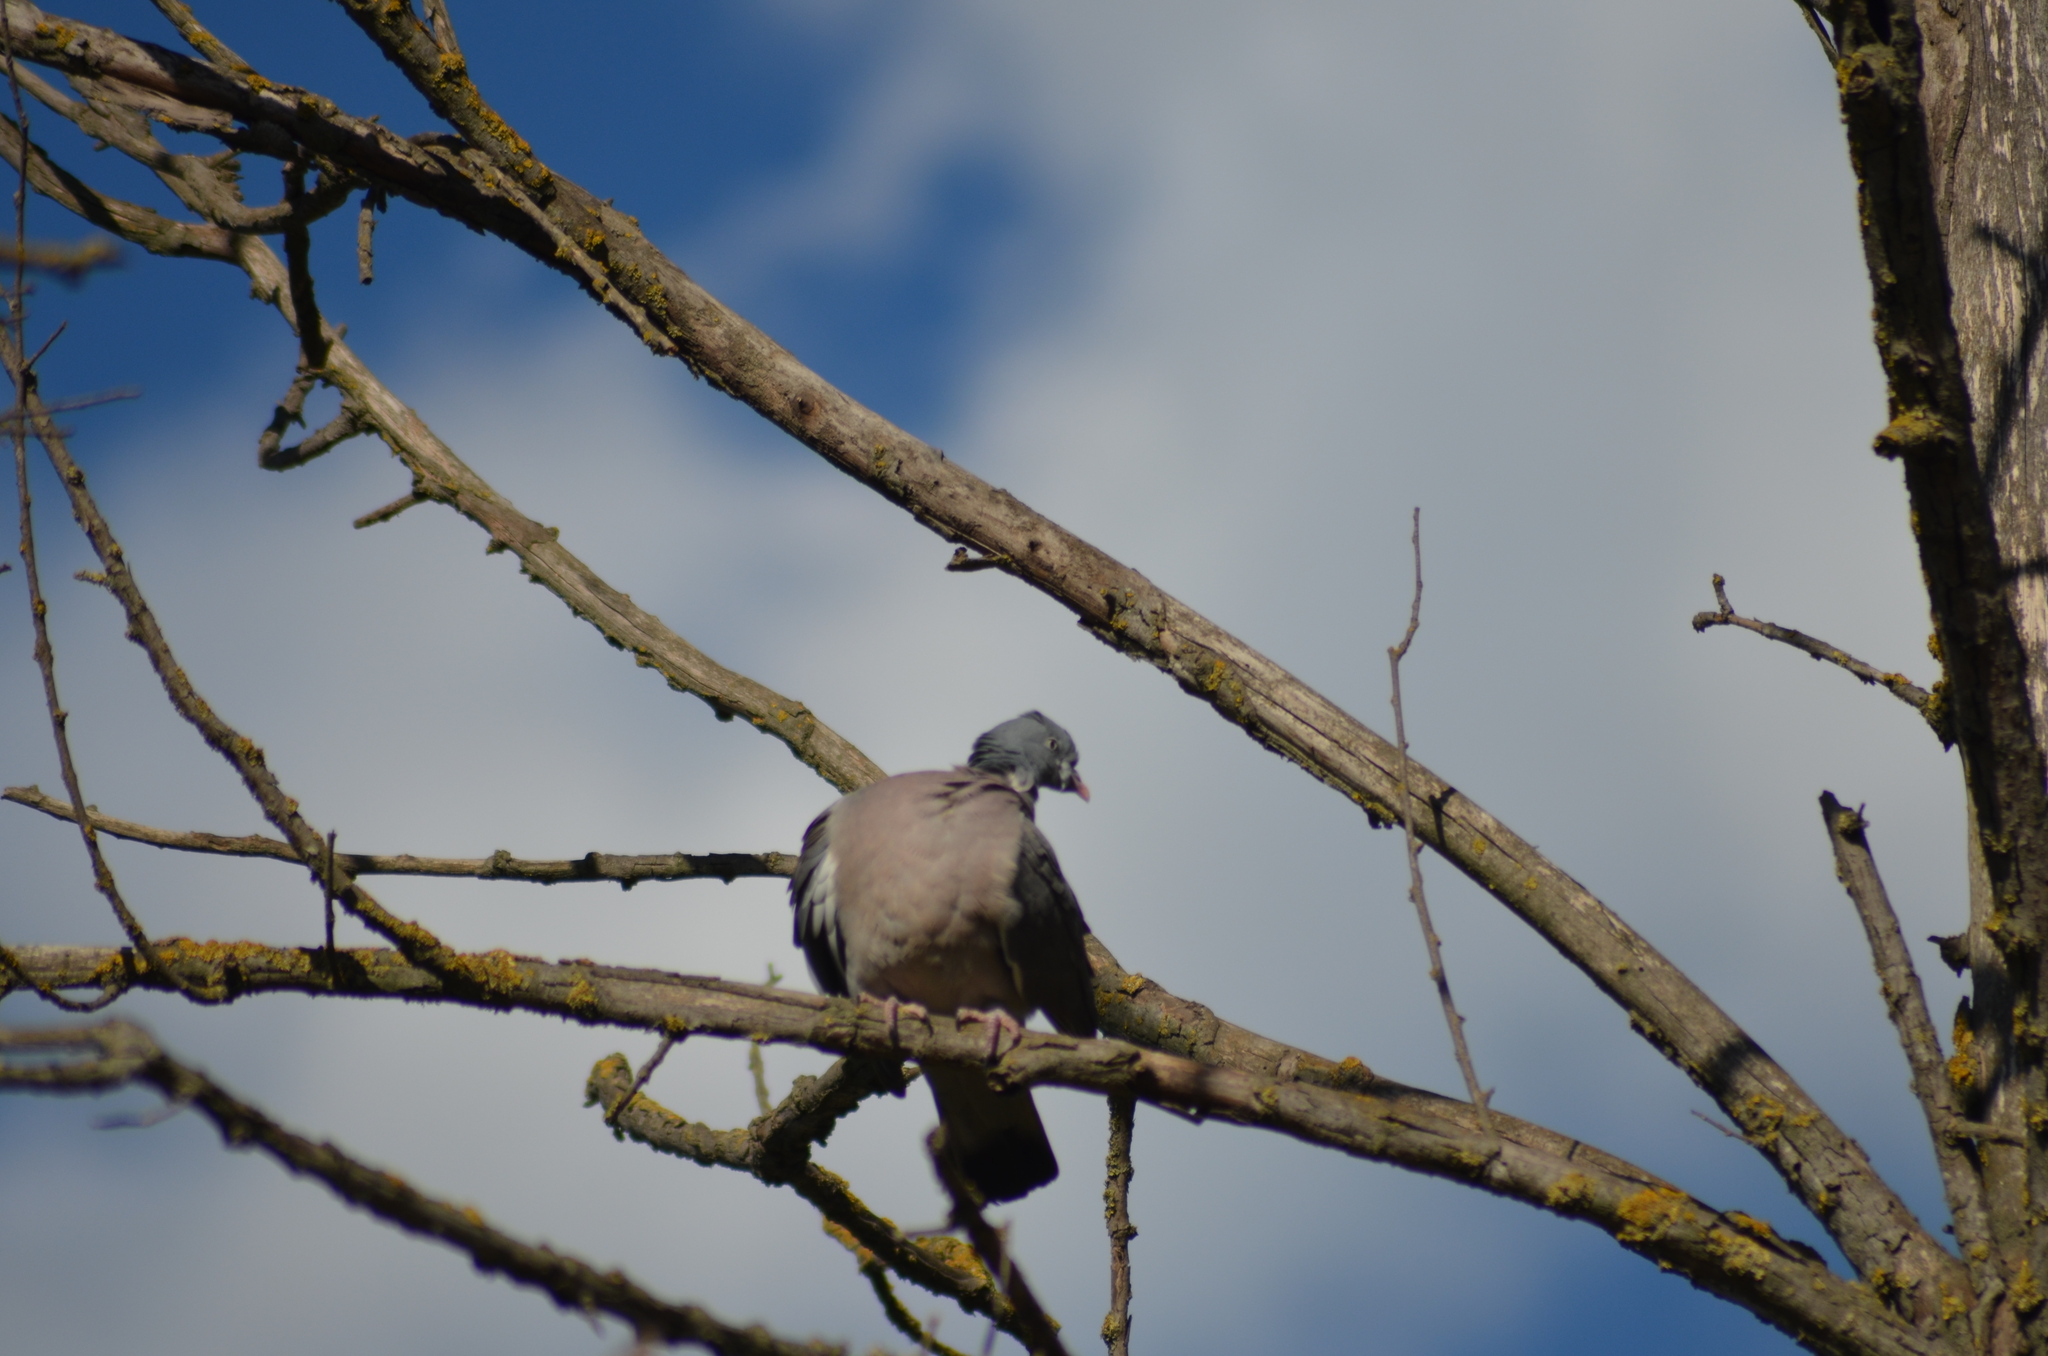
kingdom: Animalia
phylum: Chordata
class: Aves
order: Columbiformes
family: Columbidae
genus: Columba
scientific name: Columba palumbus
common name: Common wood pigeon
